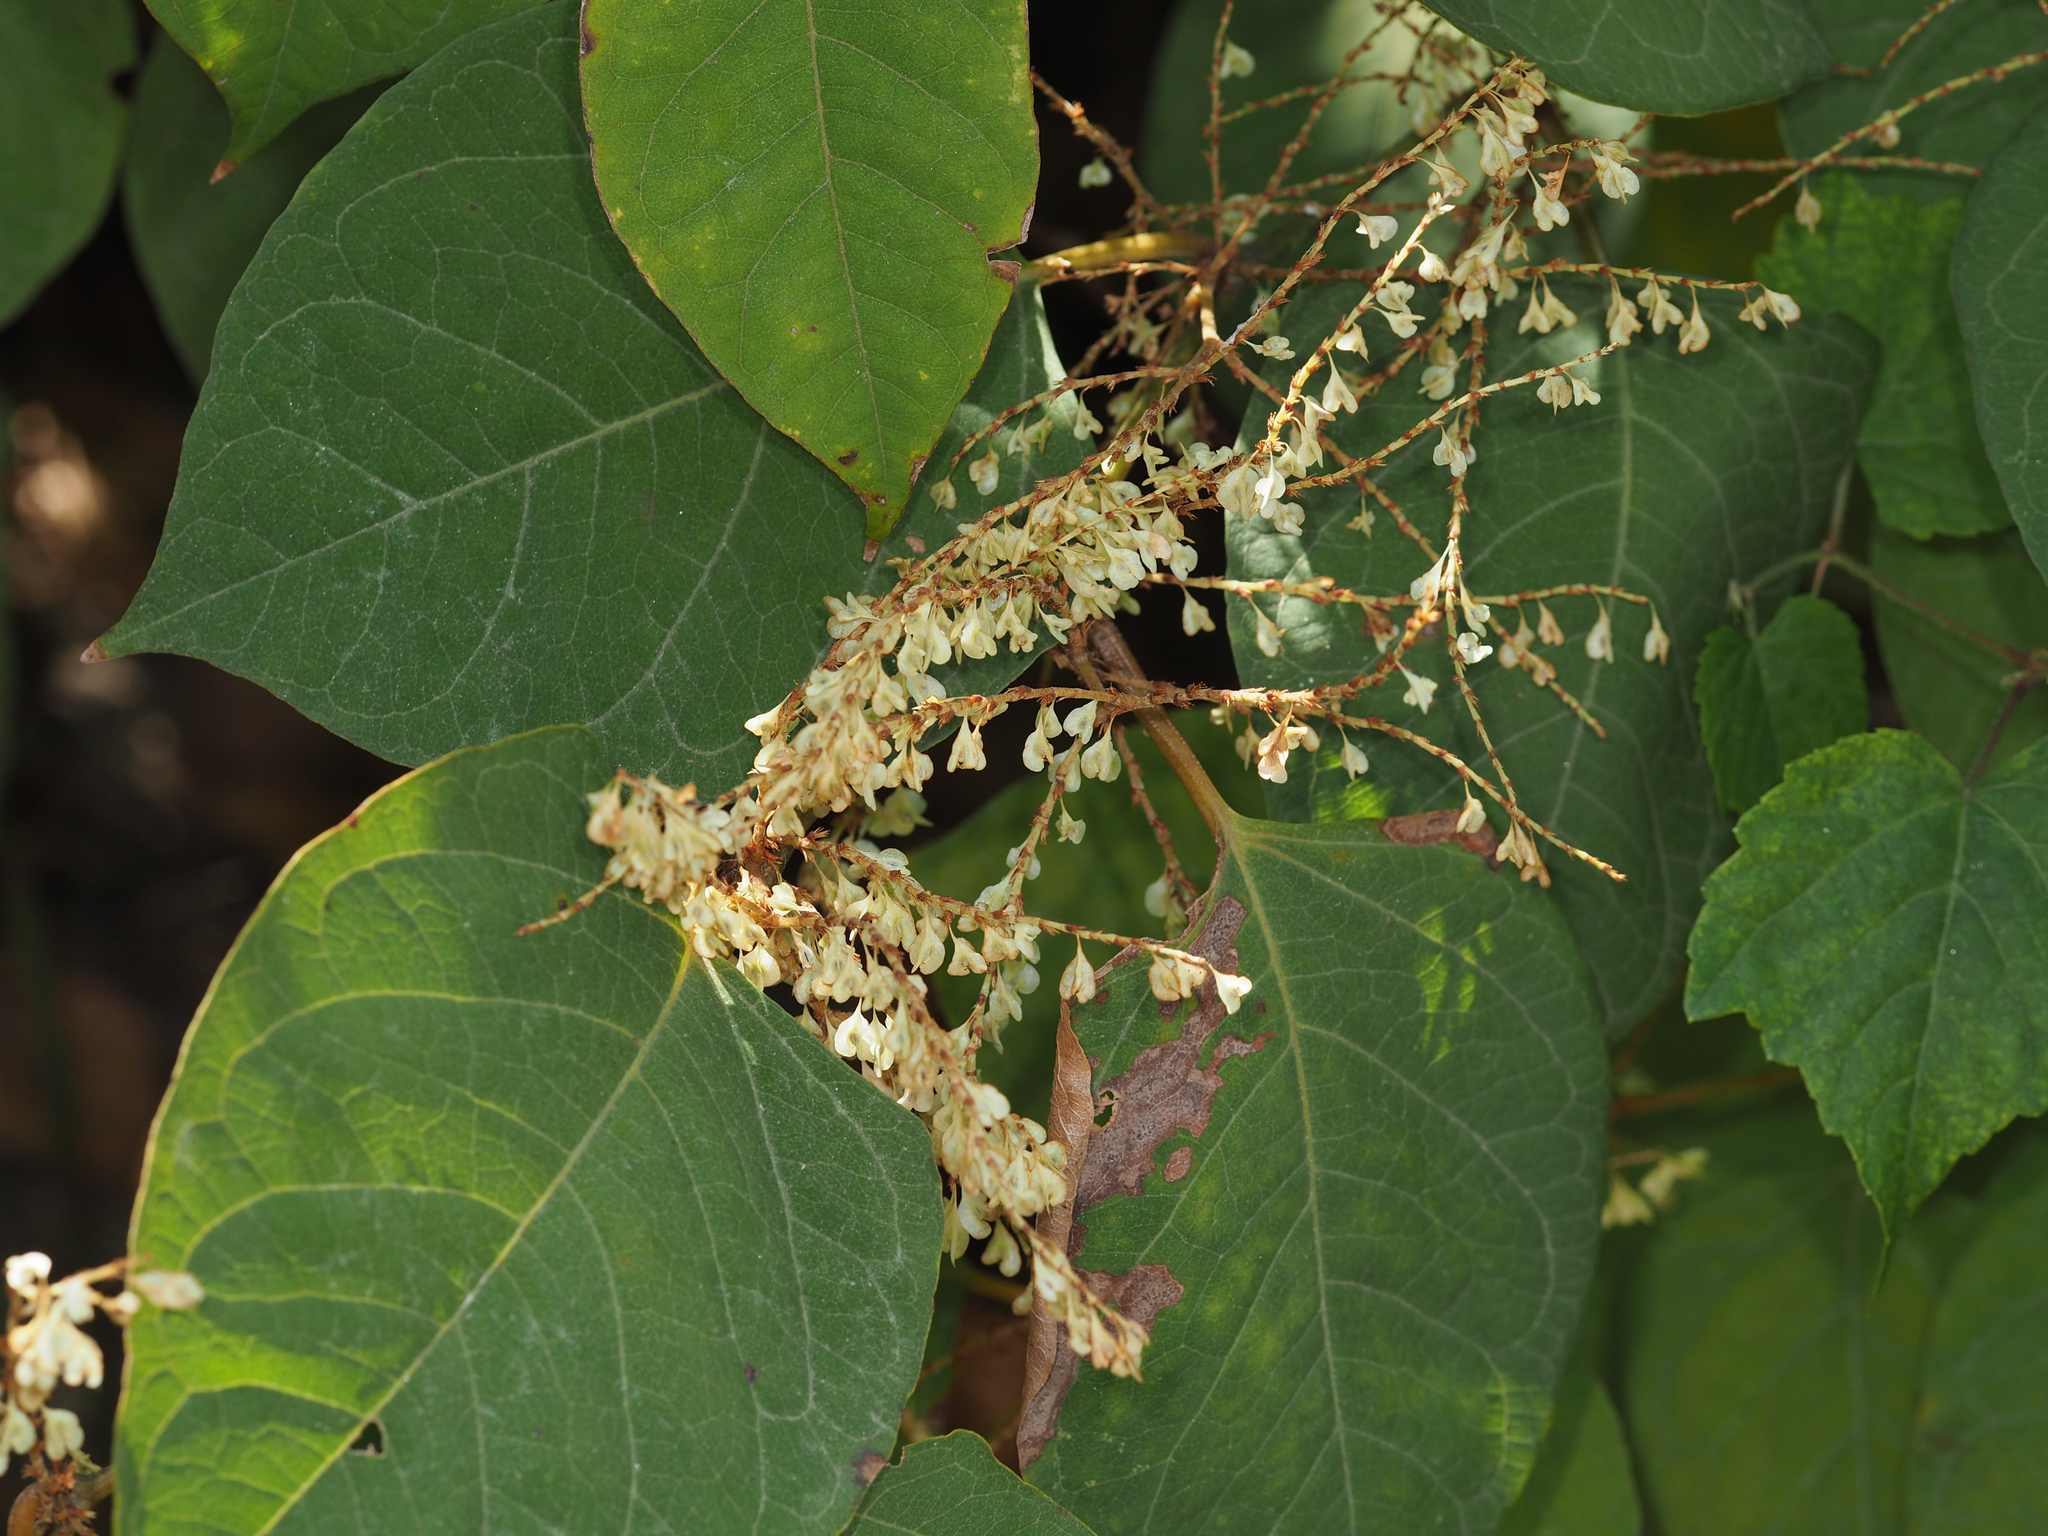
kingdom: Plantae
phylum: Tracheophyta
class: Magnoliopsida
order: Caryophyllales
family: Polygonaceae
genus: Reynoutria
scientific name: Reynoutria japonica
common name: Japanese knotweed
